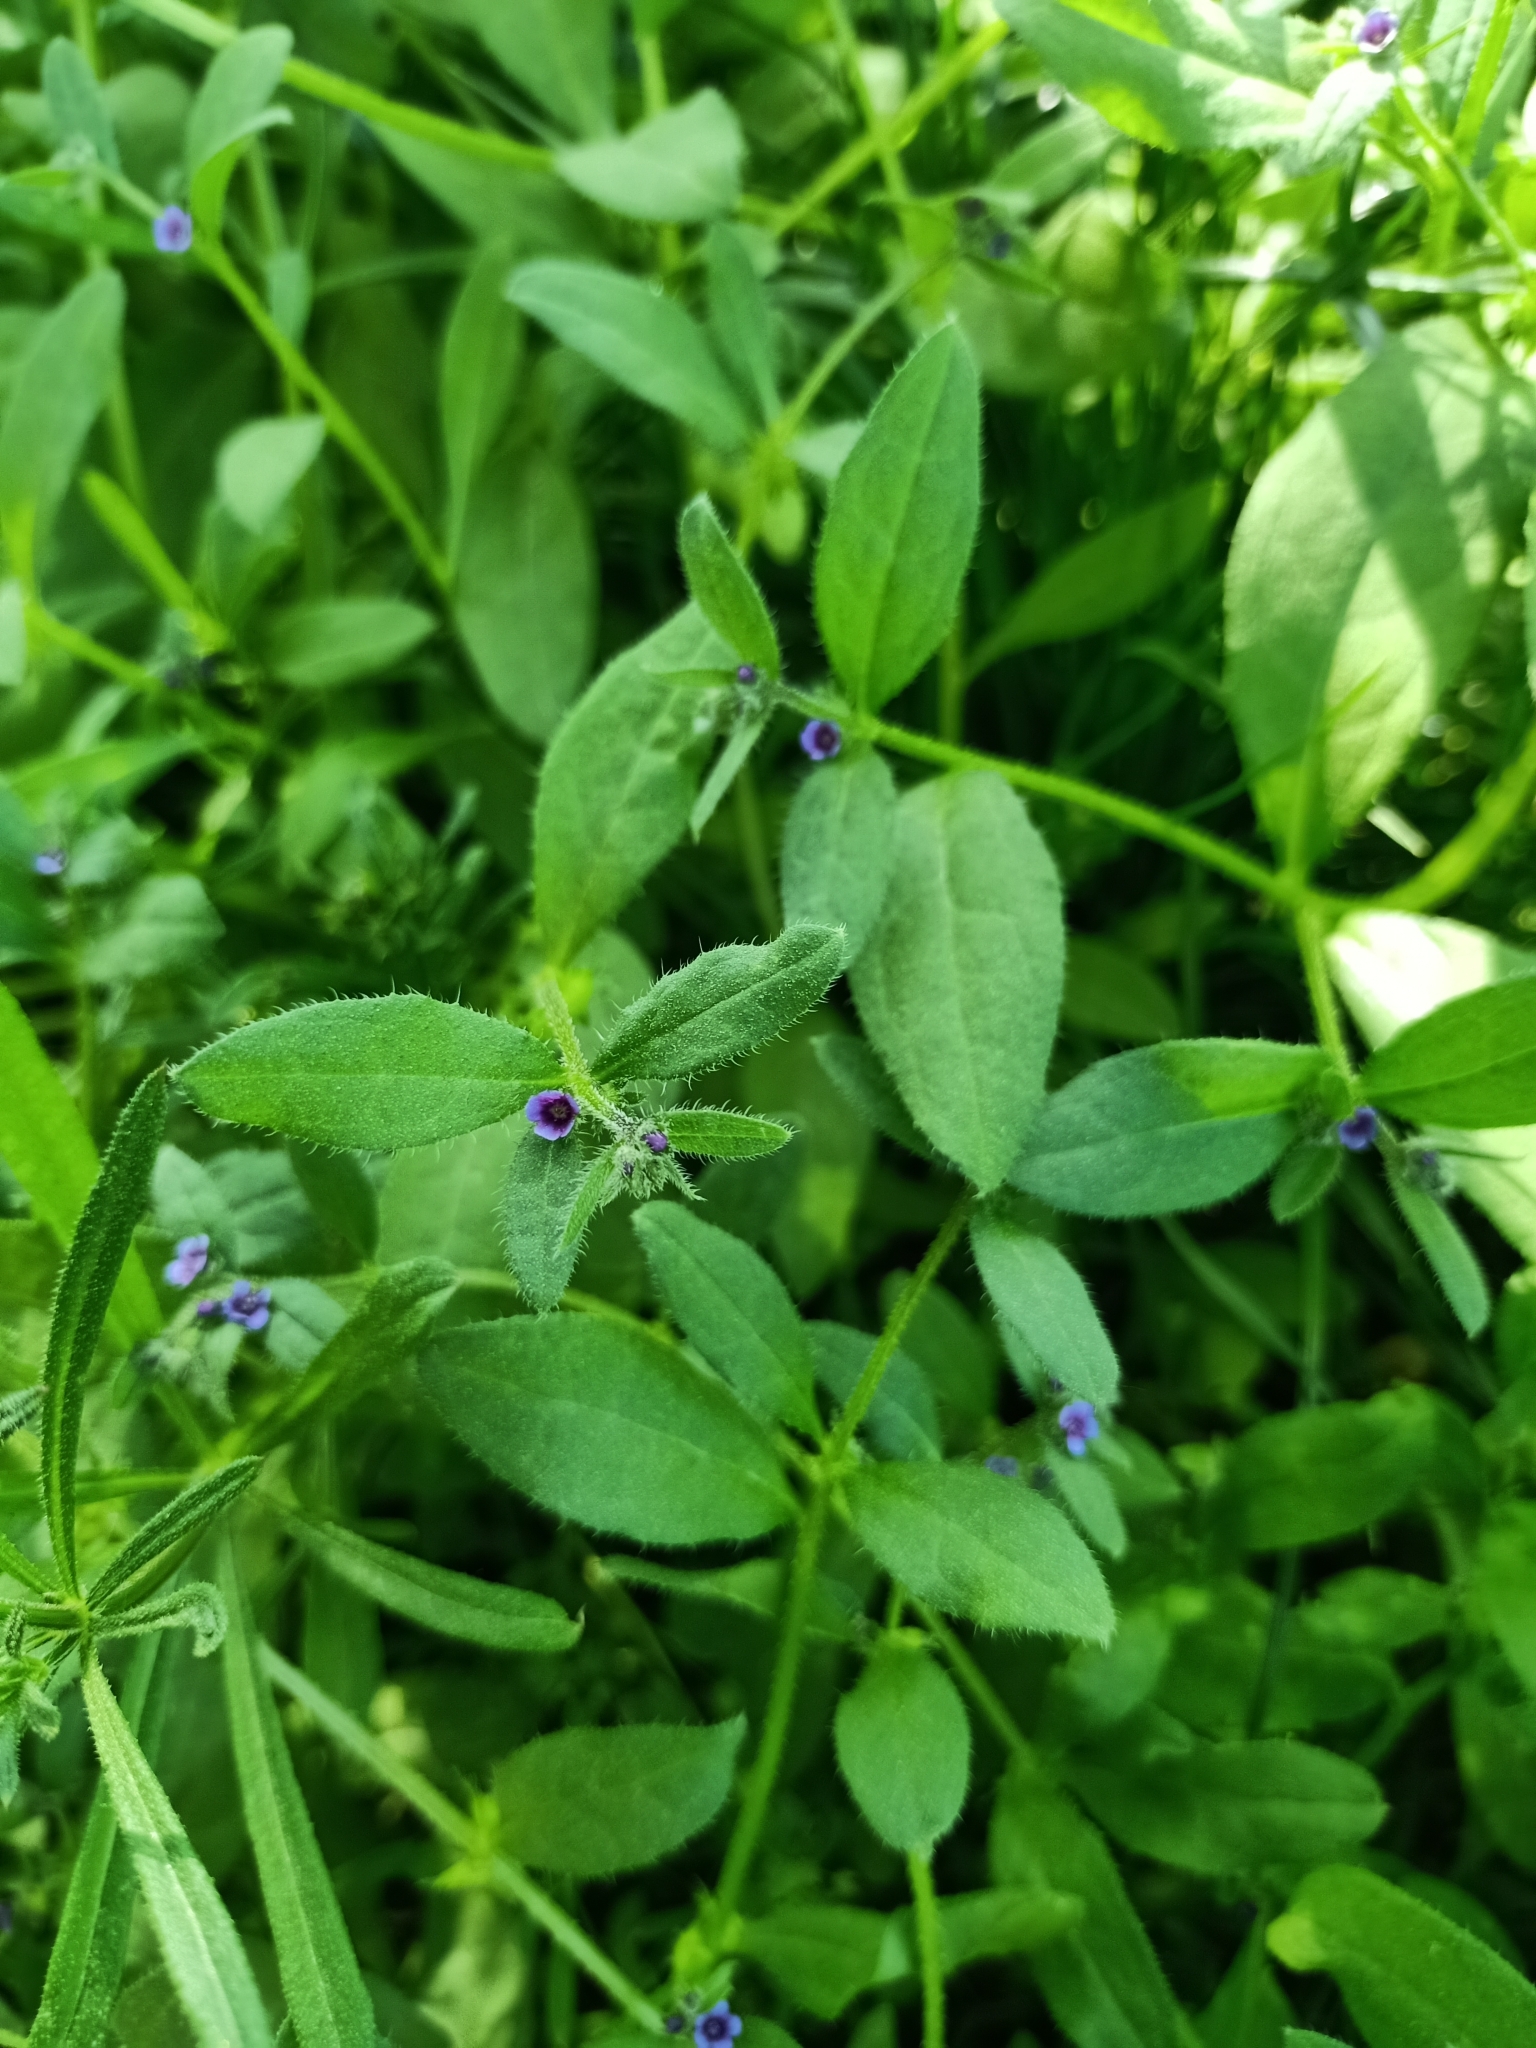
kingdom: Plantae
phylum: Tracheophyta
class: Magnoliopsida
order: Boraginales
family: Boraginaceae
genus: Asperugo
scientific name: Asperugo procumbens
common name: Madwort
